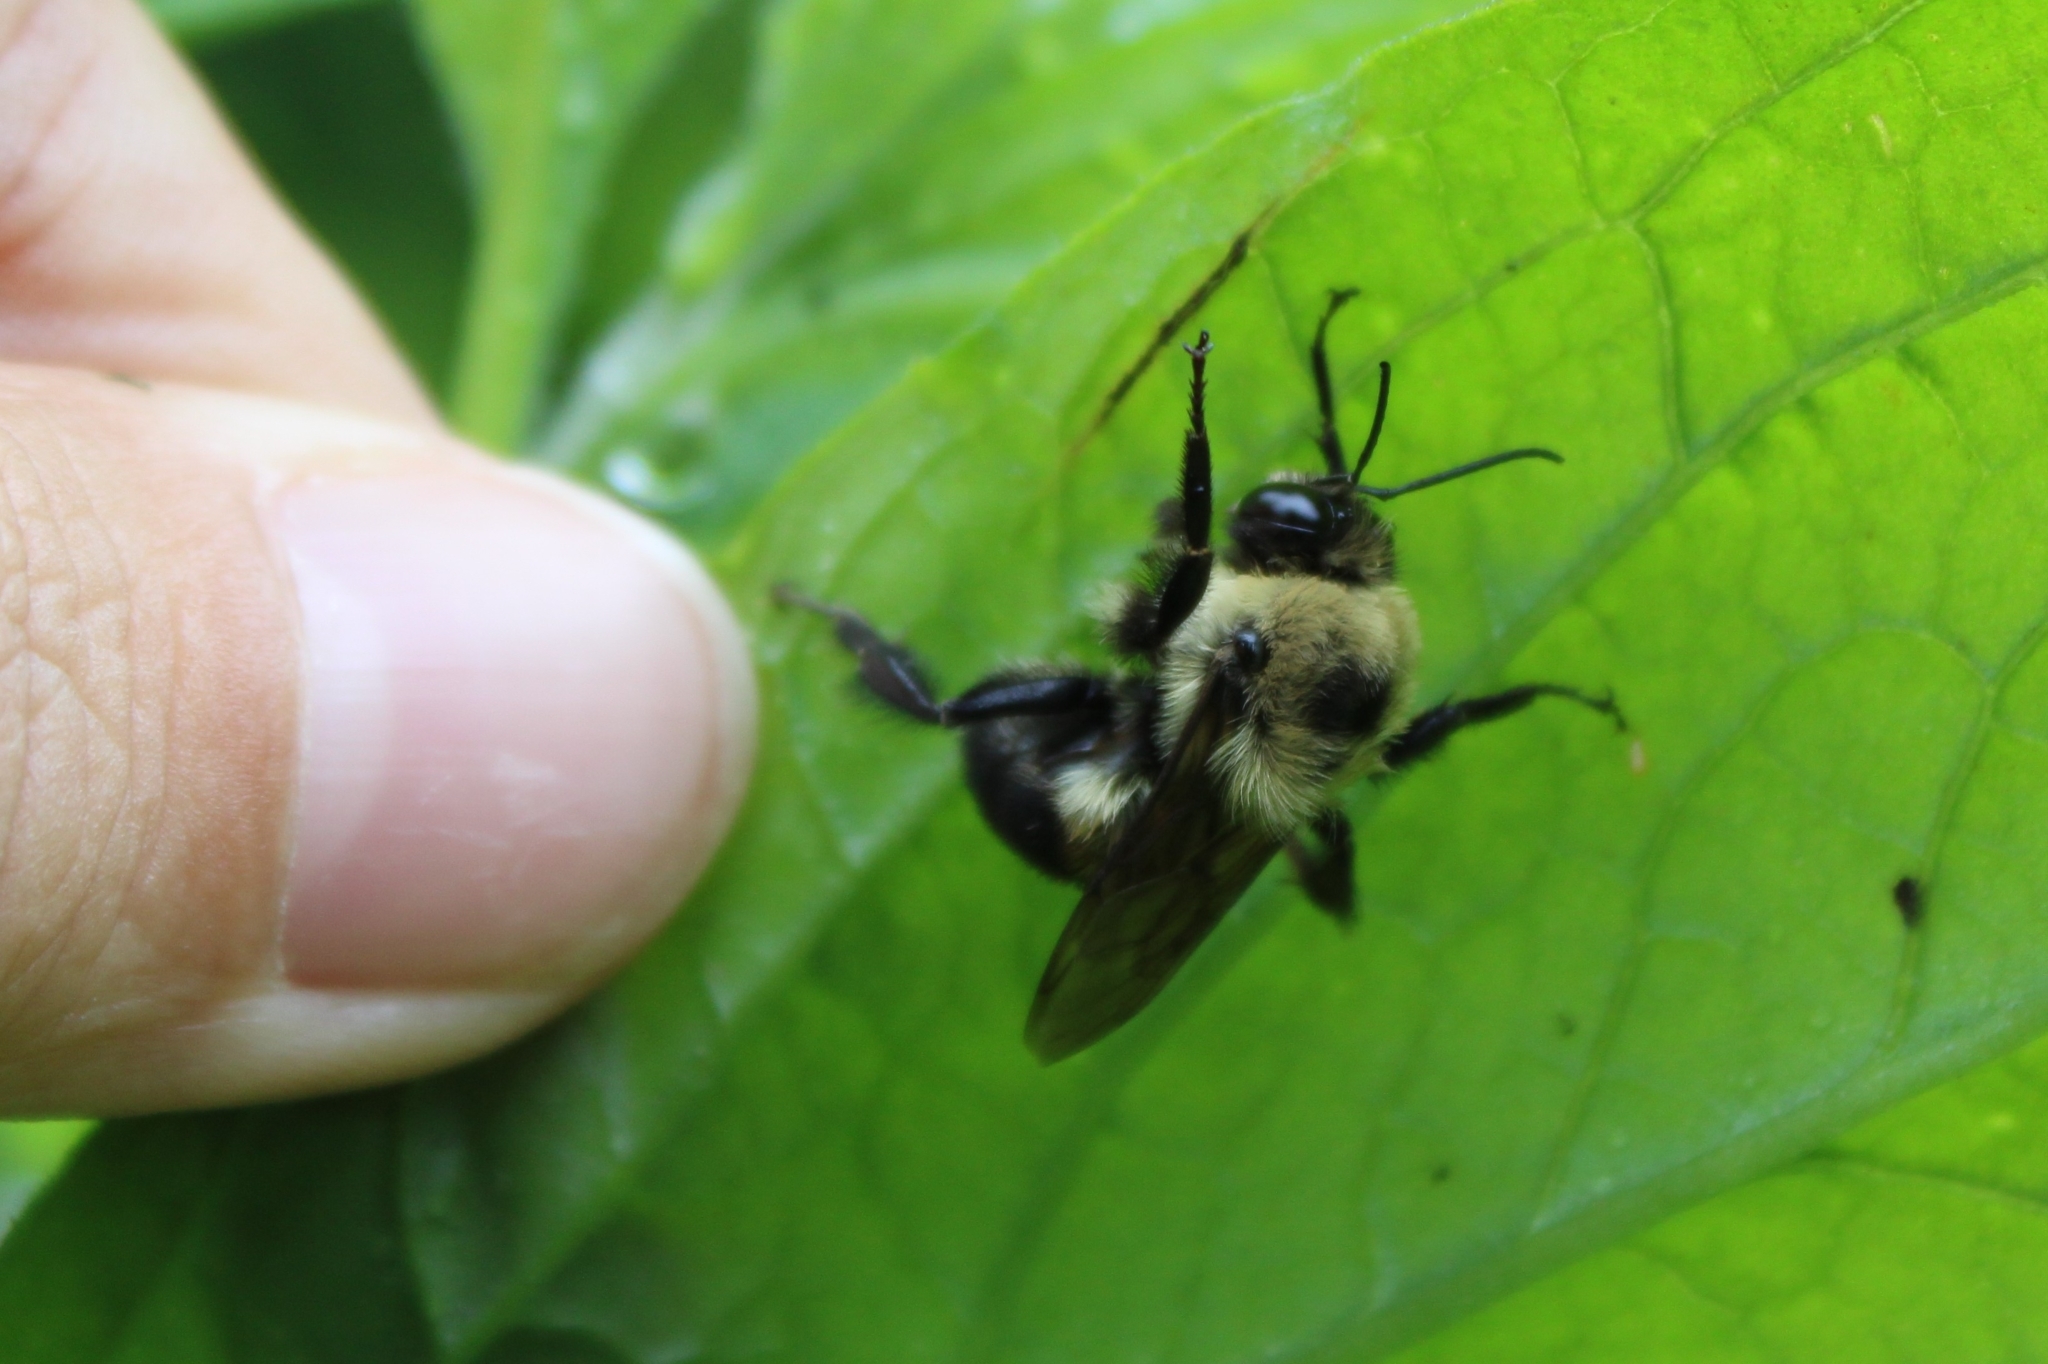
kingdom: Animalia
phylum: Arthropoda
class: Insecta
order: Hymenoptera
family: Apidae
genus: Bombus
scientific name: Bombus griseocollis
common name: Brown-belted bumble bee
